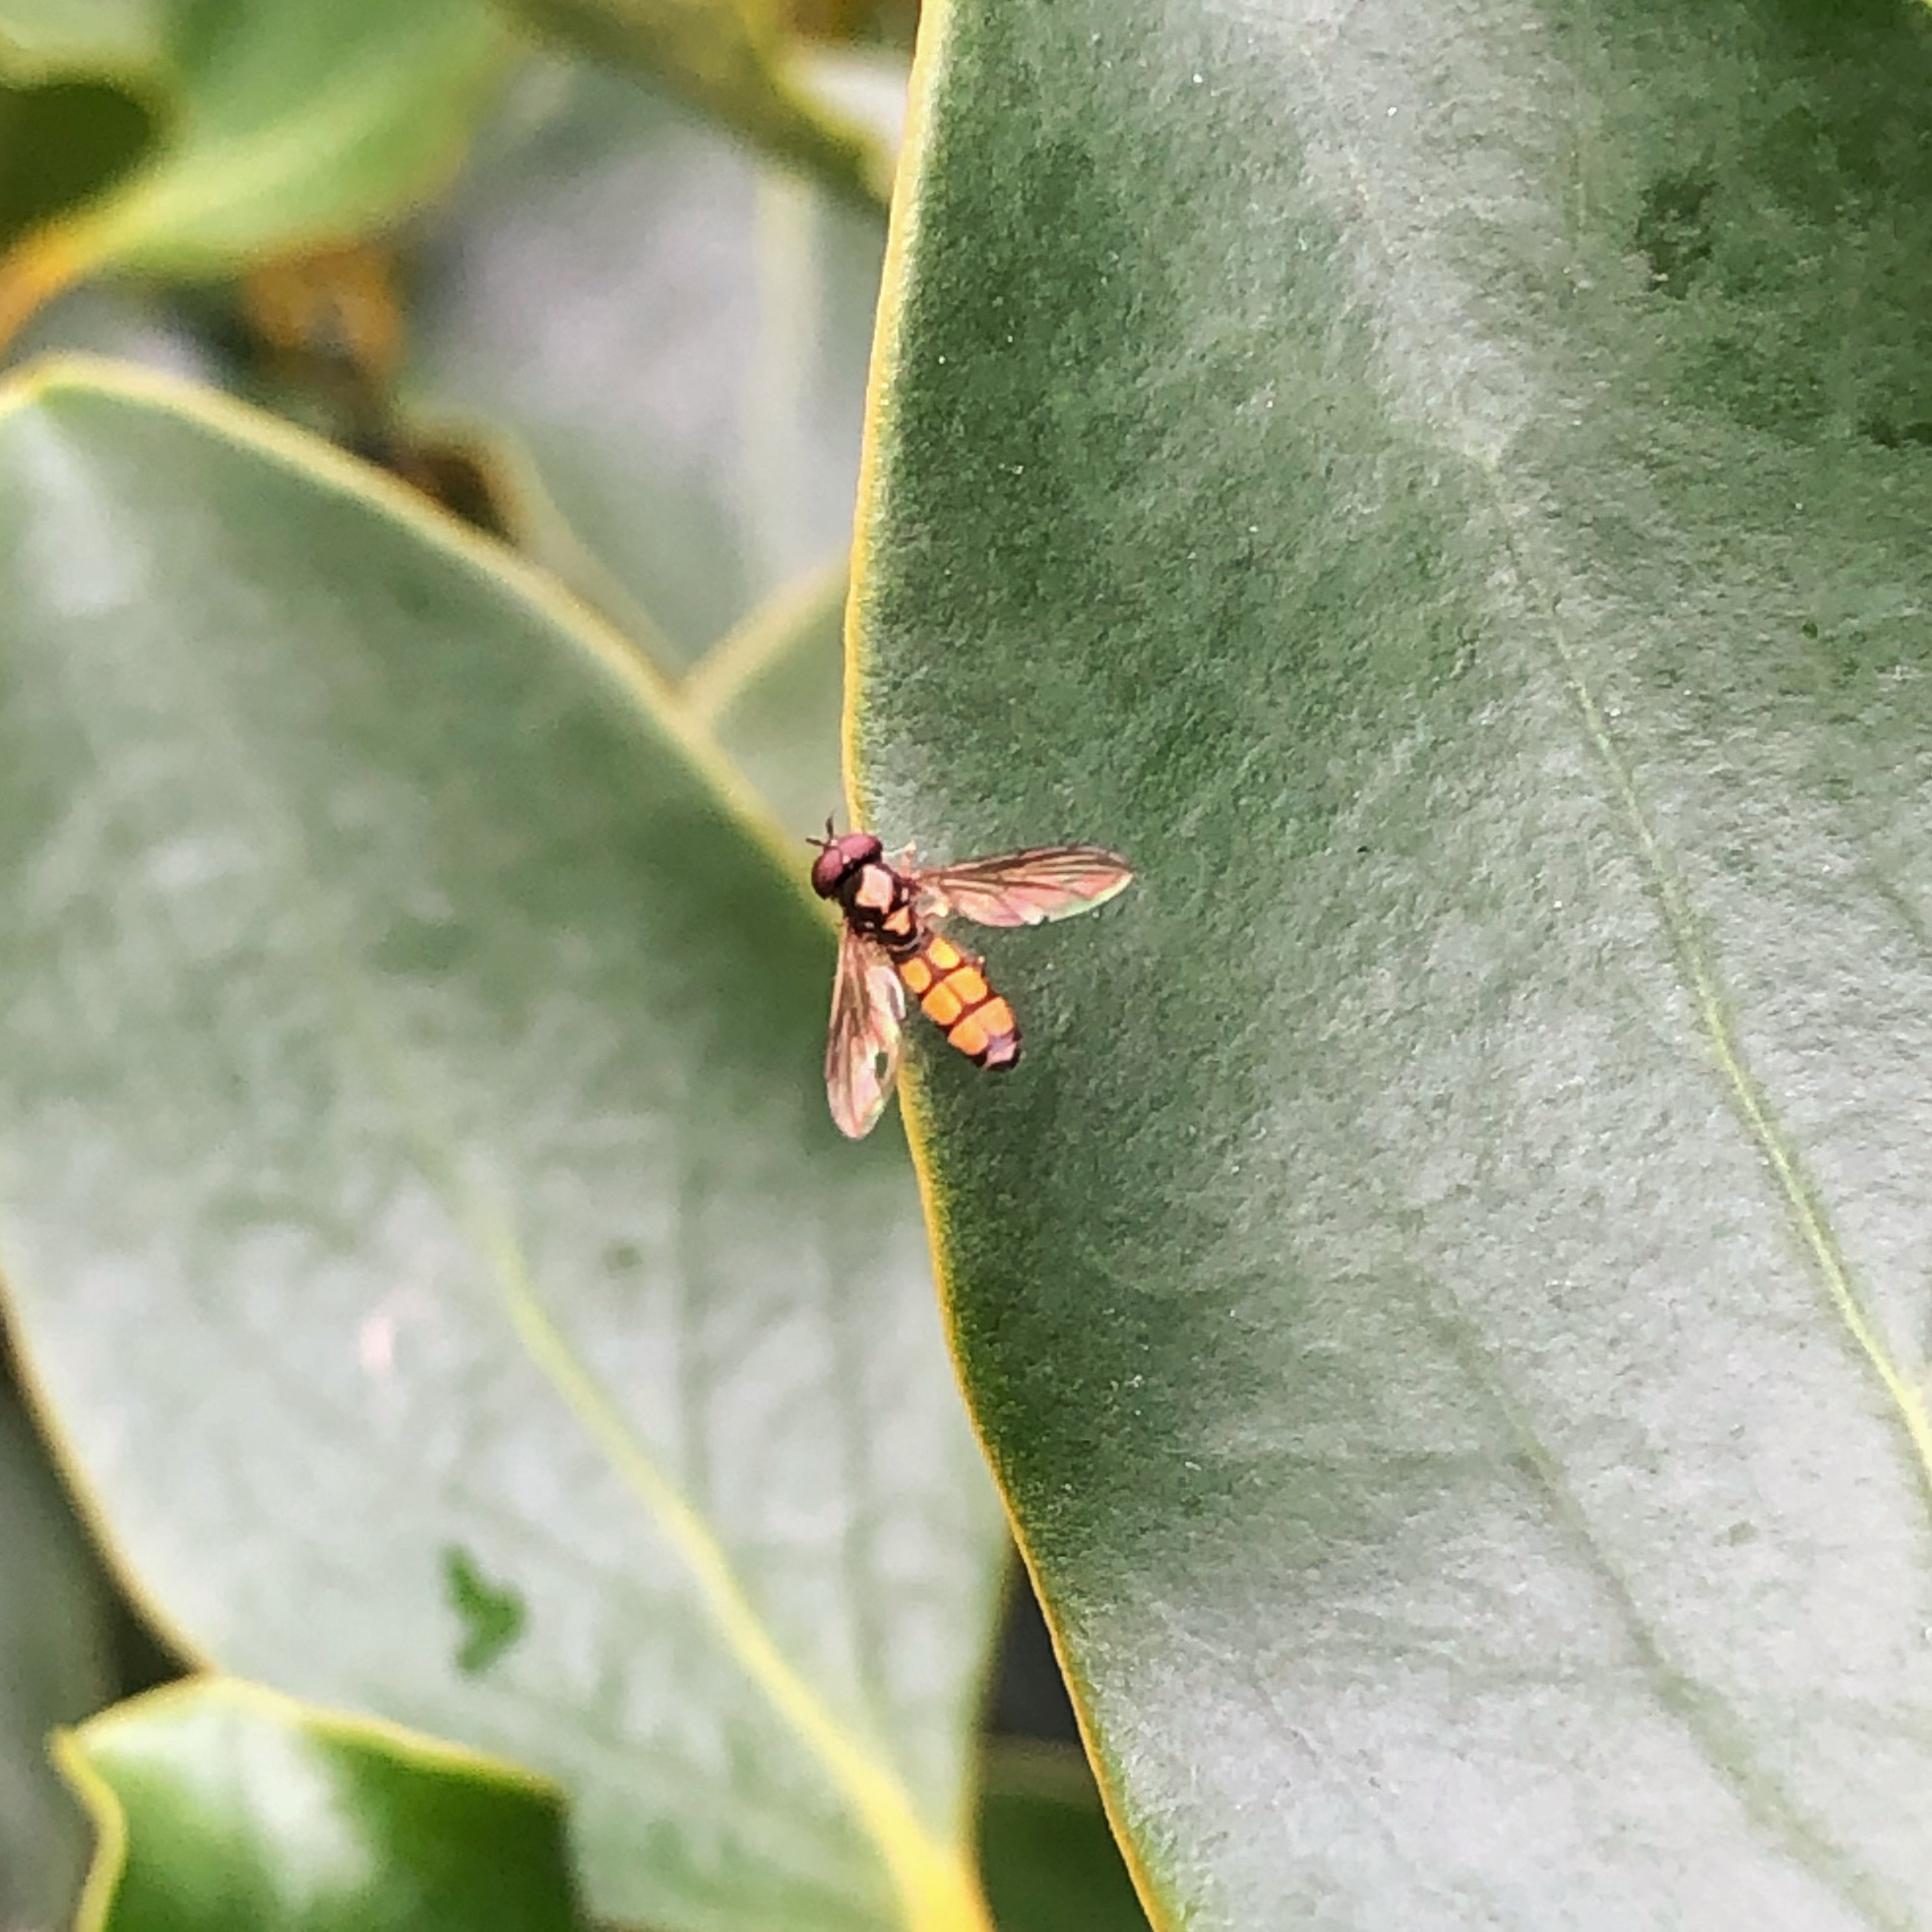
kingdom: Animalia
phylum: Arthropoda
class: Insecta
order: Diptera
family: Syrphidae
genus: Melanostoma
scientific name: Melanostoma fasciatum
